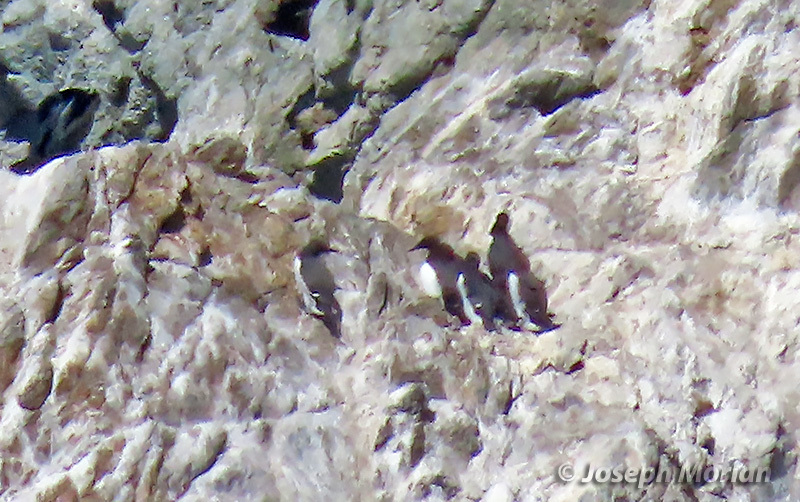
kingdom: Animalia
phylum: Chordata
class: Aves
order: Charadriiformes
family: Alcidae
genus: Uria
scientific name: Uria aalge
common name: Common murre
